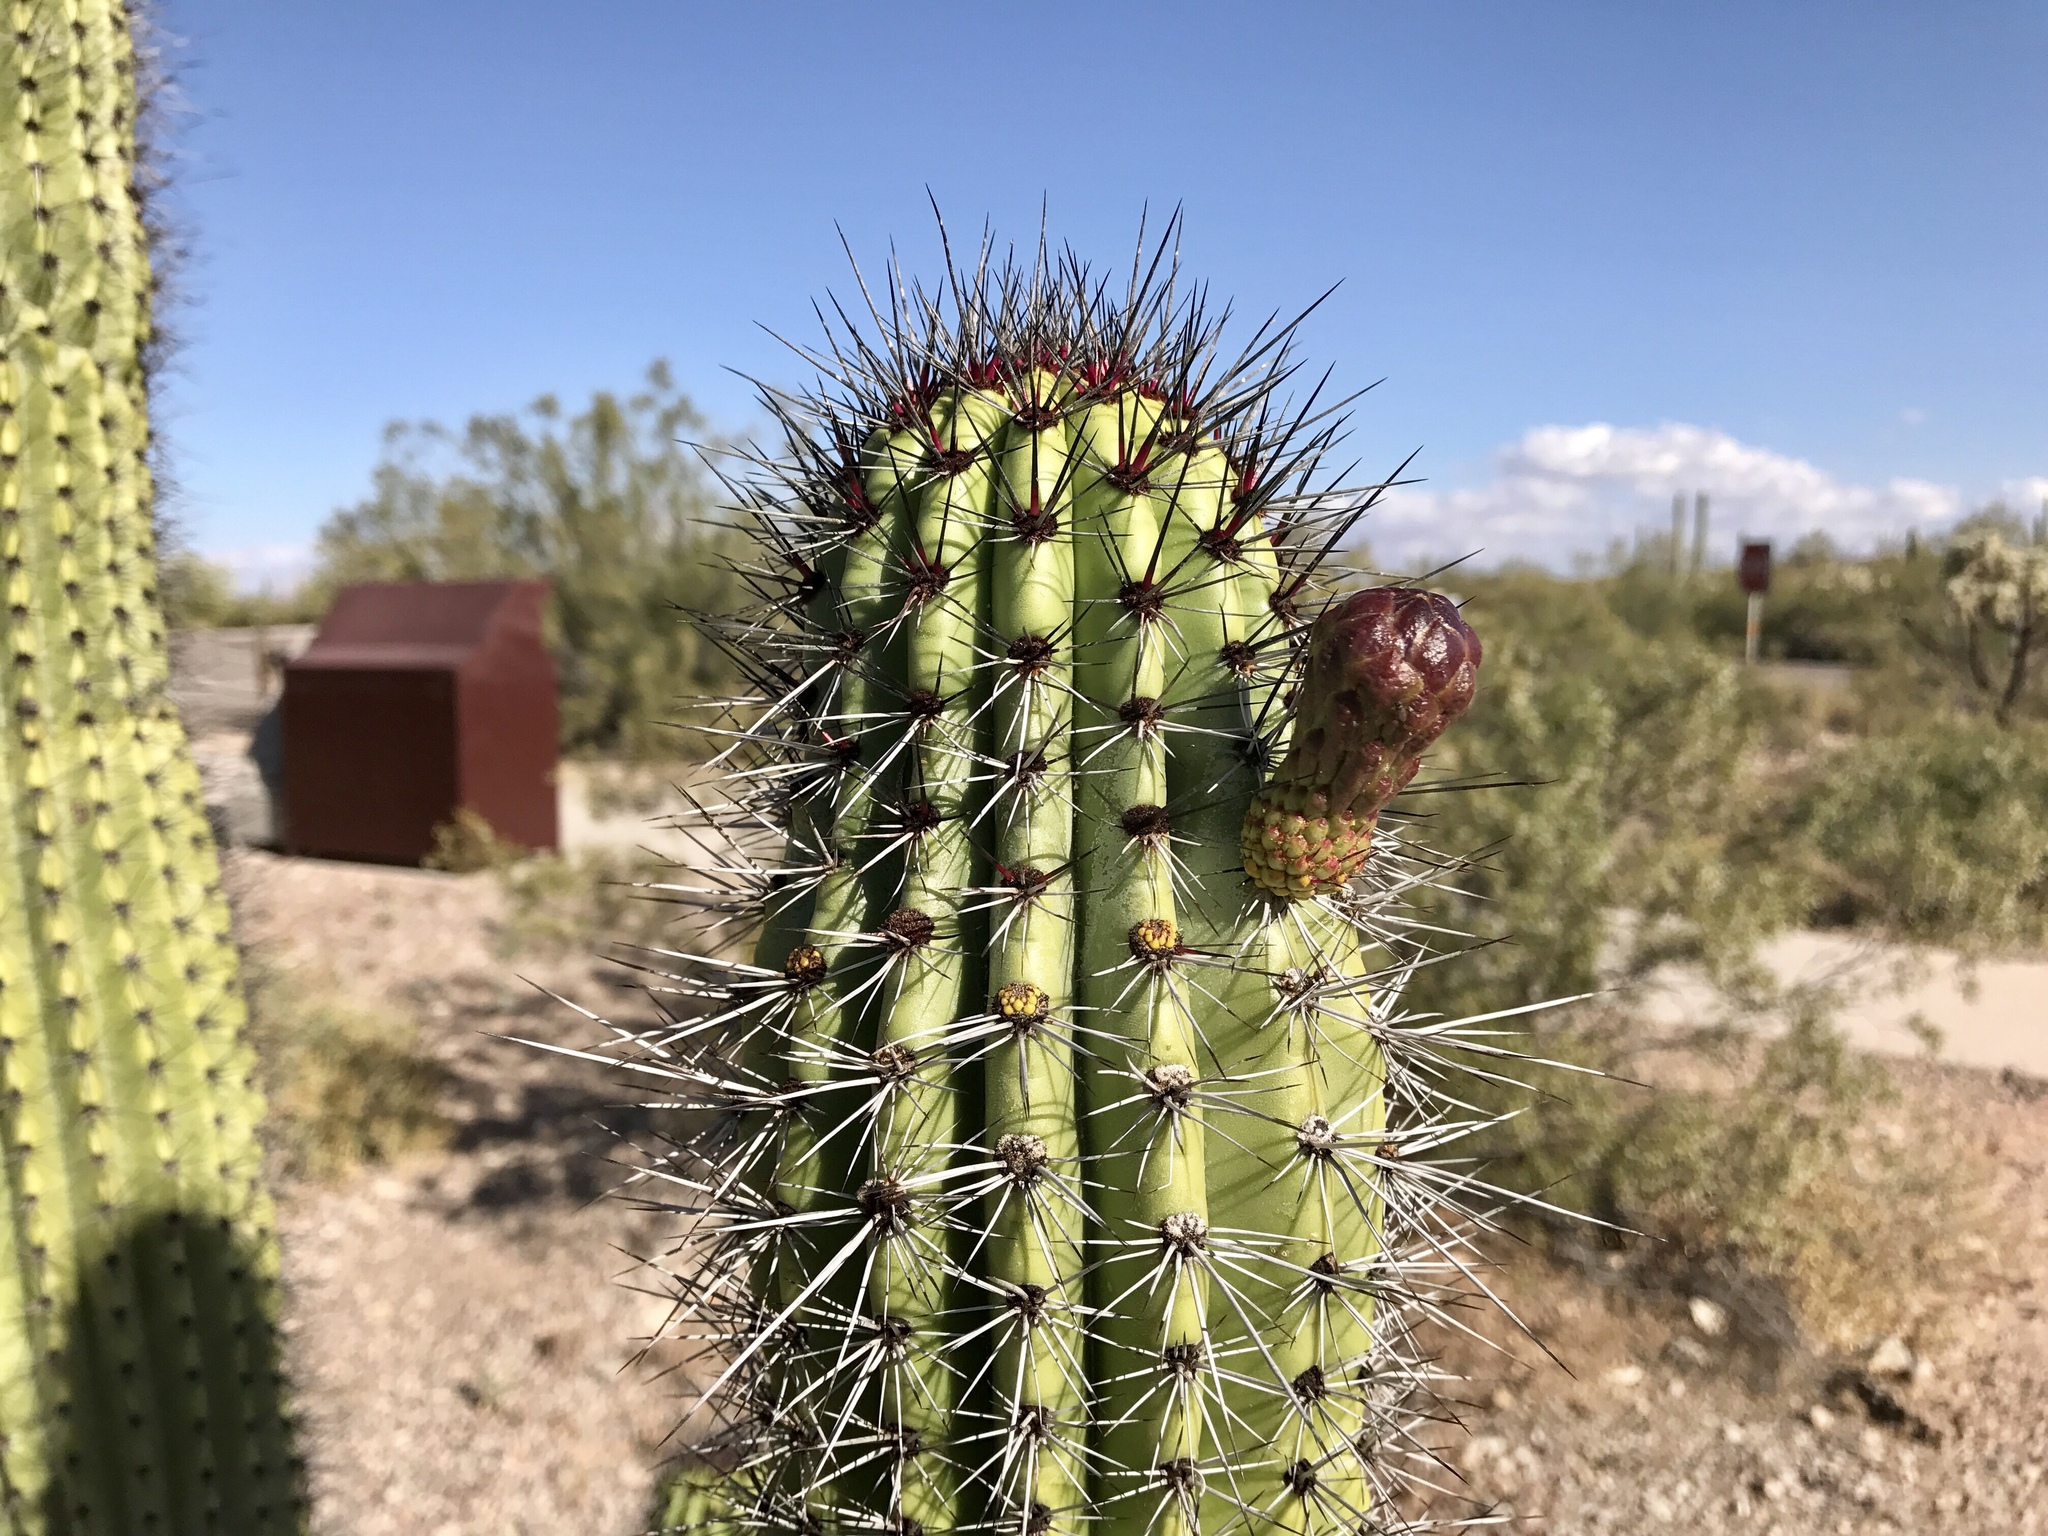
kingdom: Plantae
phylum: Tracheophyta
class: Magnoliopsida
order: Caryophyllales
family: Cactaceae
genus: Stenocereus
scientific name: Stenocereus thurberi
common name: Organ pipe cactus
